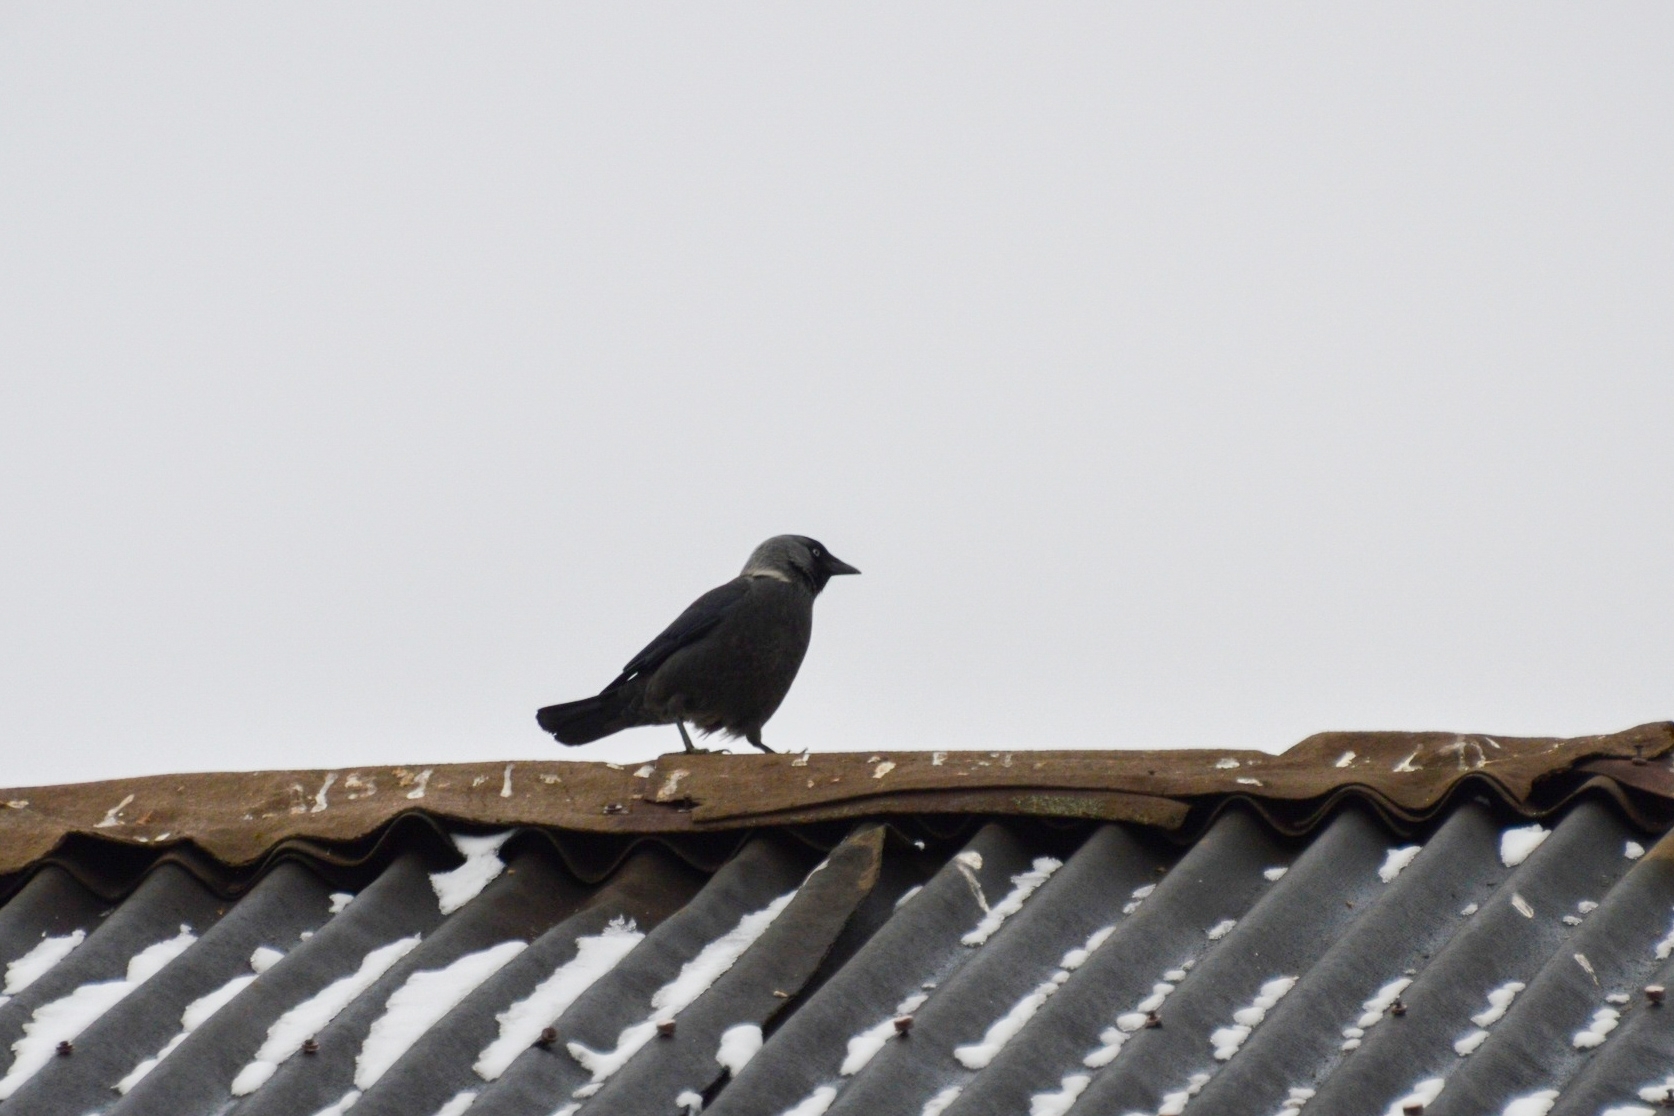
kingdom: Animalia
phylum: Chordata
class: Aves
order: Passeriformes
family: Corvidae
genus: Coloeus
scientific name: Coloeus monedula
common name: Western jackdaw
